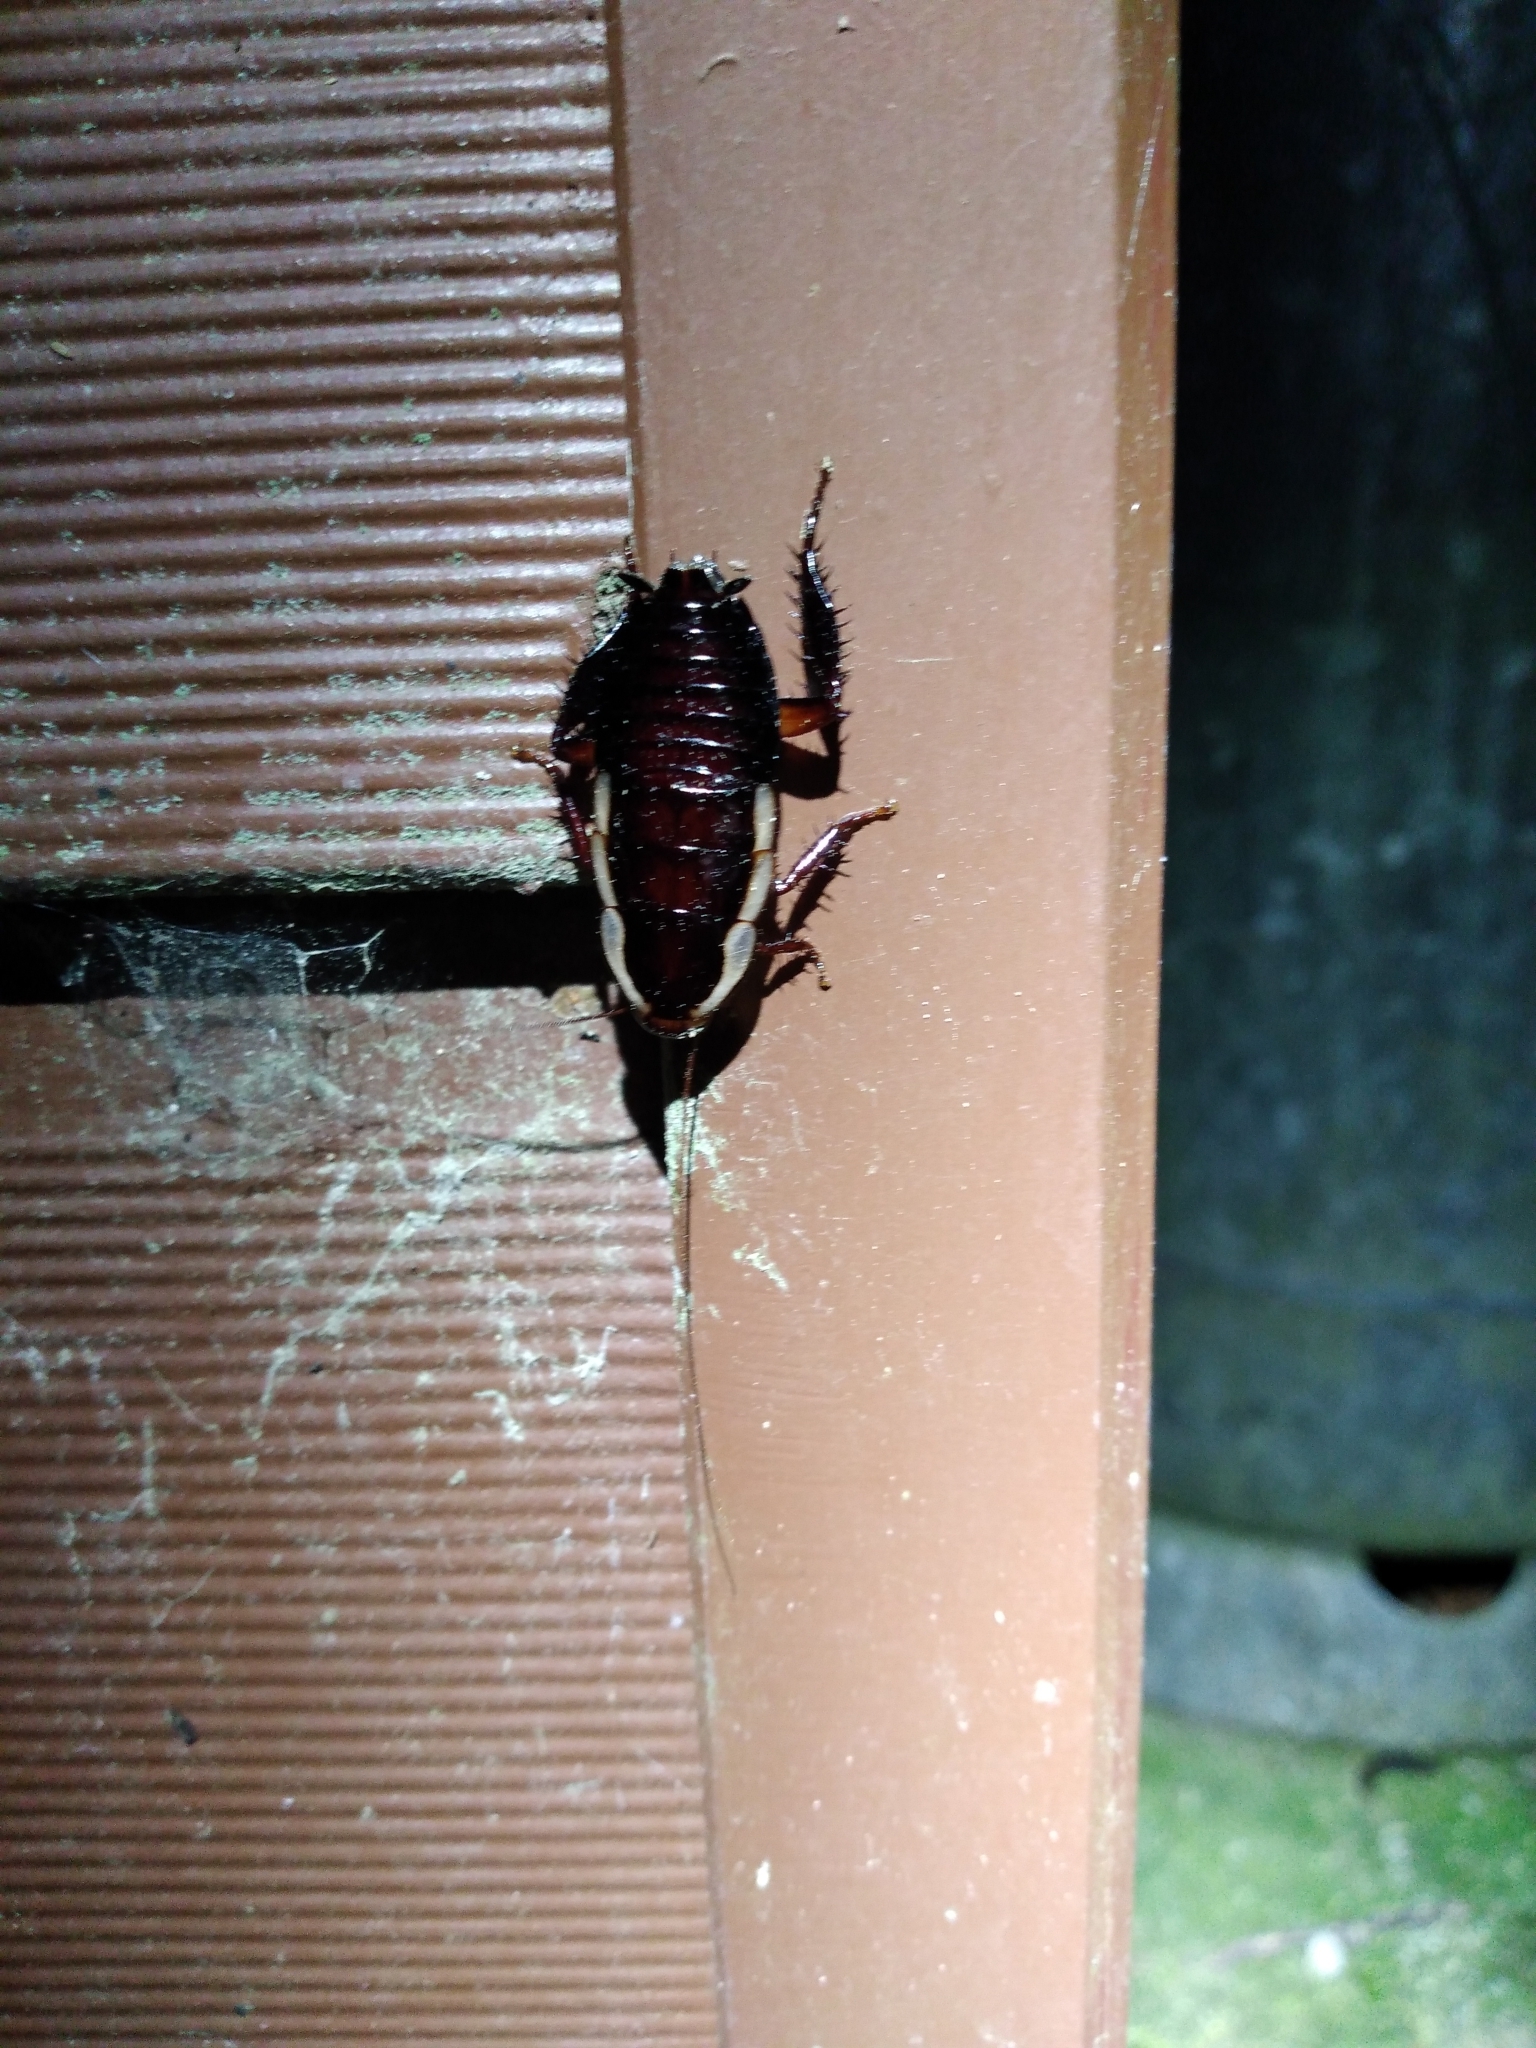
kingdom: Animalia
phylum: Arthropoda
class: Insecta
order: Blattodea
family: Blattidae
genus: Drymaplaneta
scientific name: Drymaplaneta semivitta
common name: Gisborne cockroach
